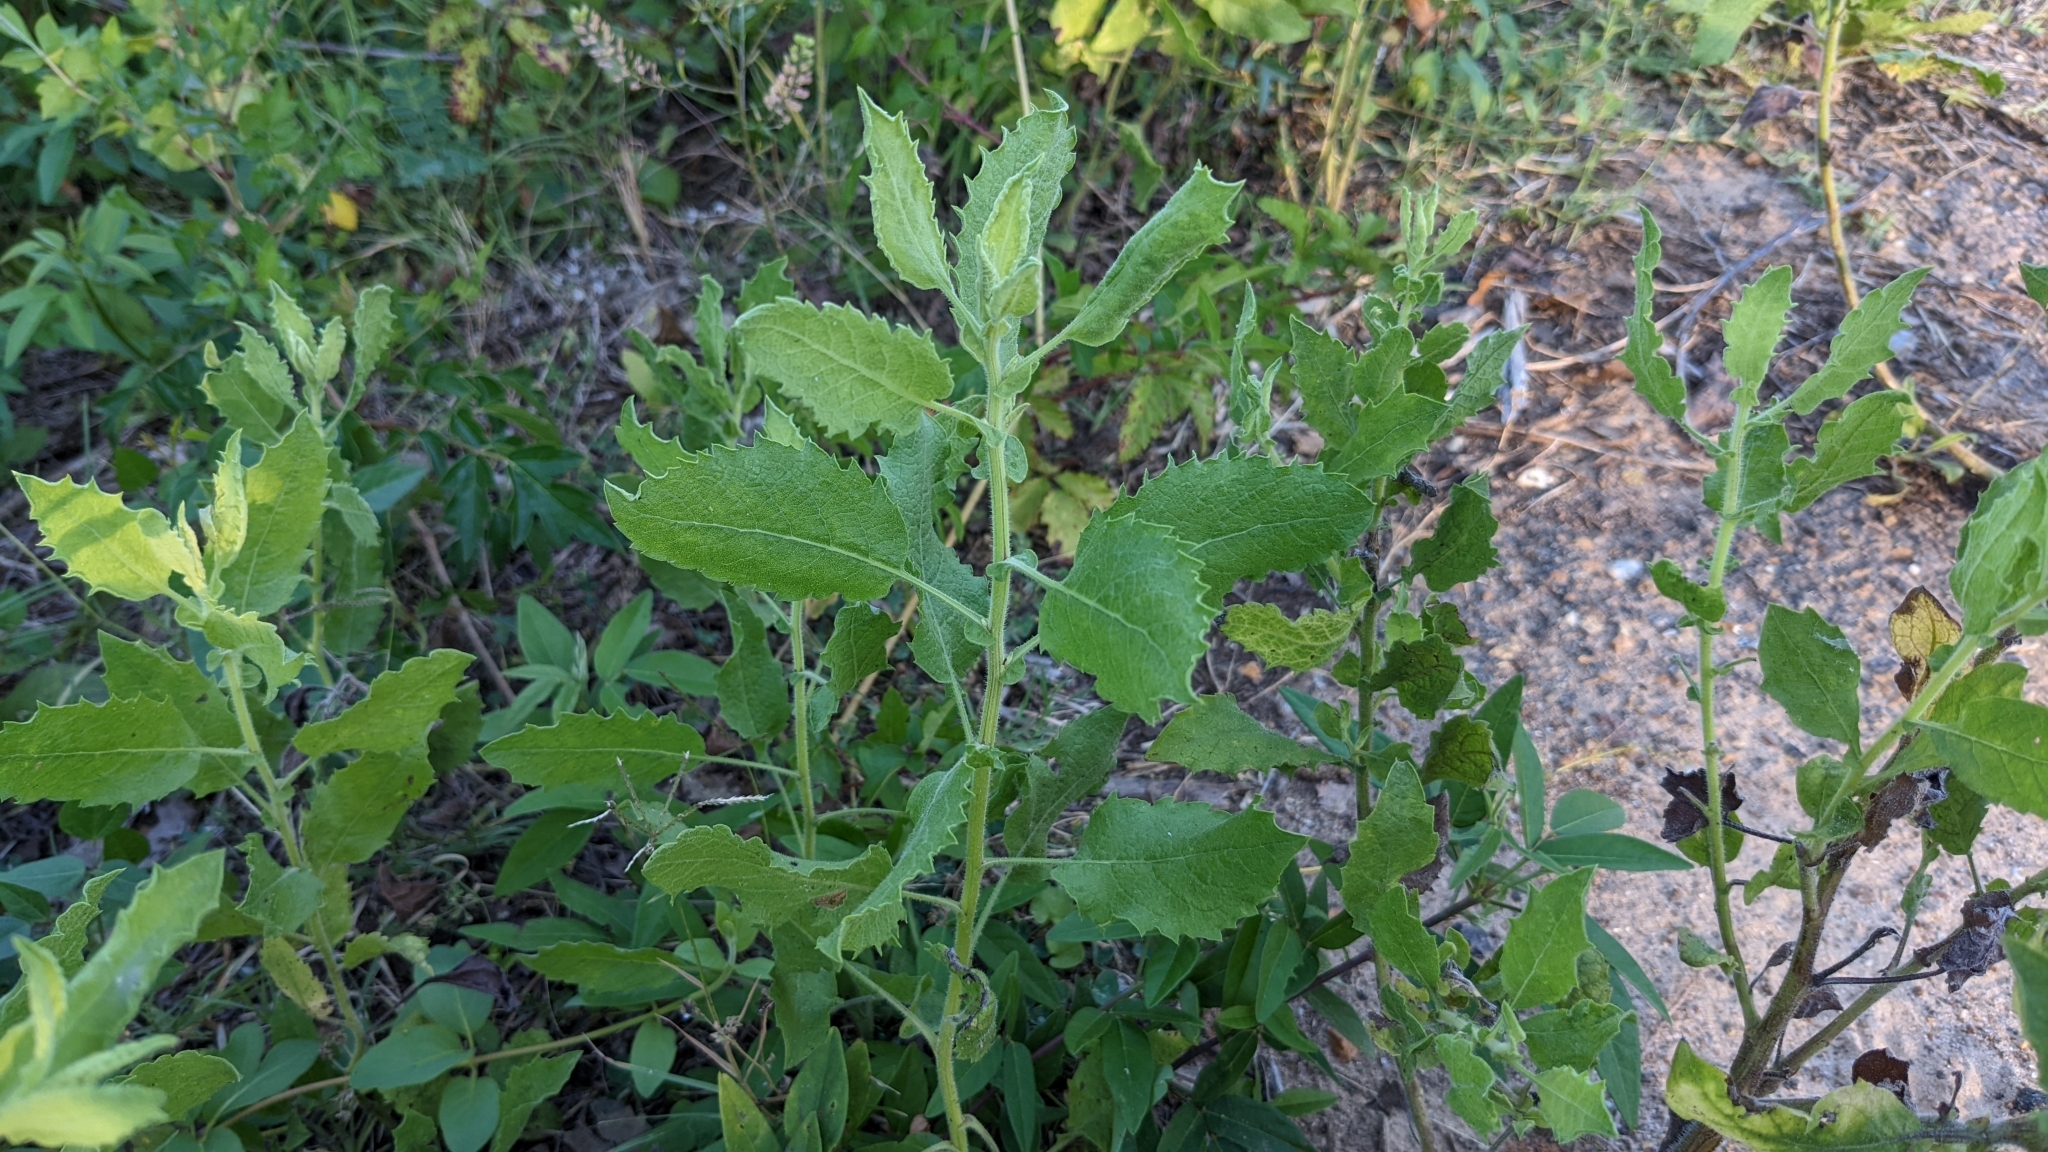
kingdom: Plantae
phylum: Tracheophyta
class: Magnoliopsida
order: Asterales
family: Asteraceae
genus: Heterotheca
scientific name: Heterotheca subaxillaris
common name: Camphorweed
